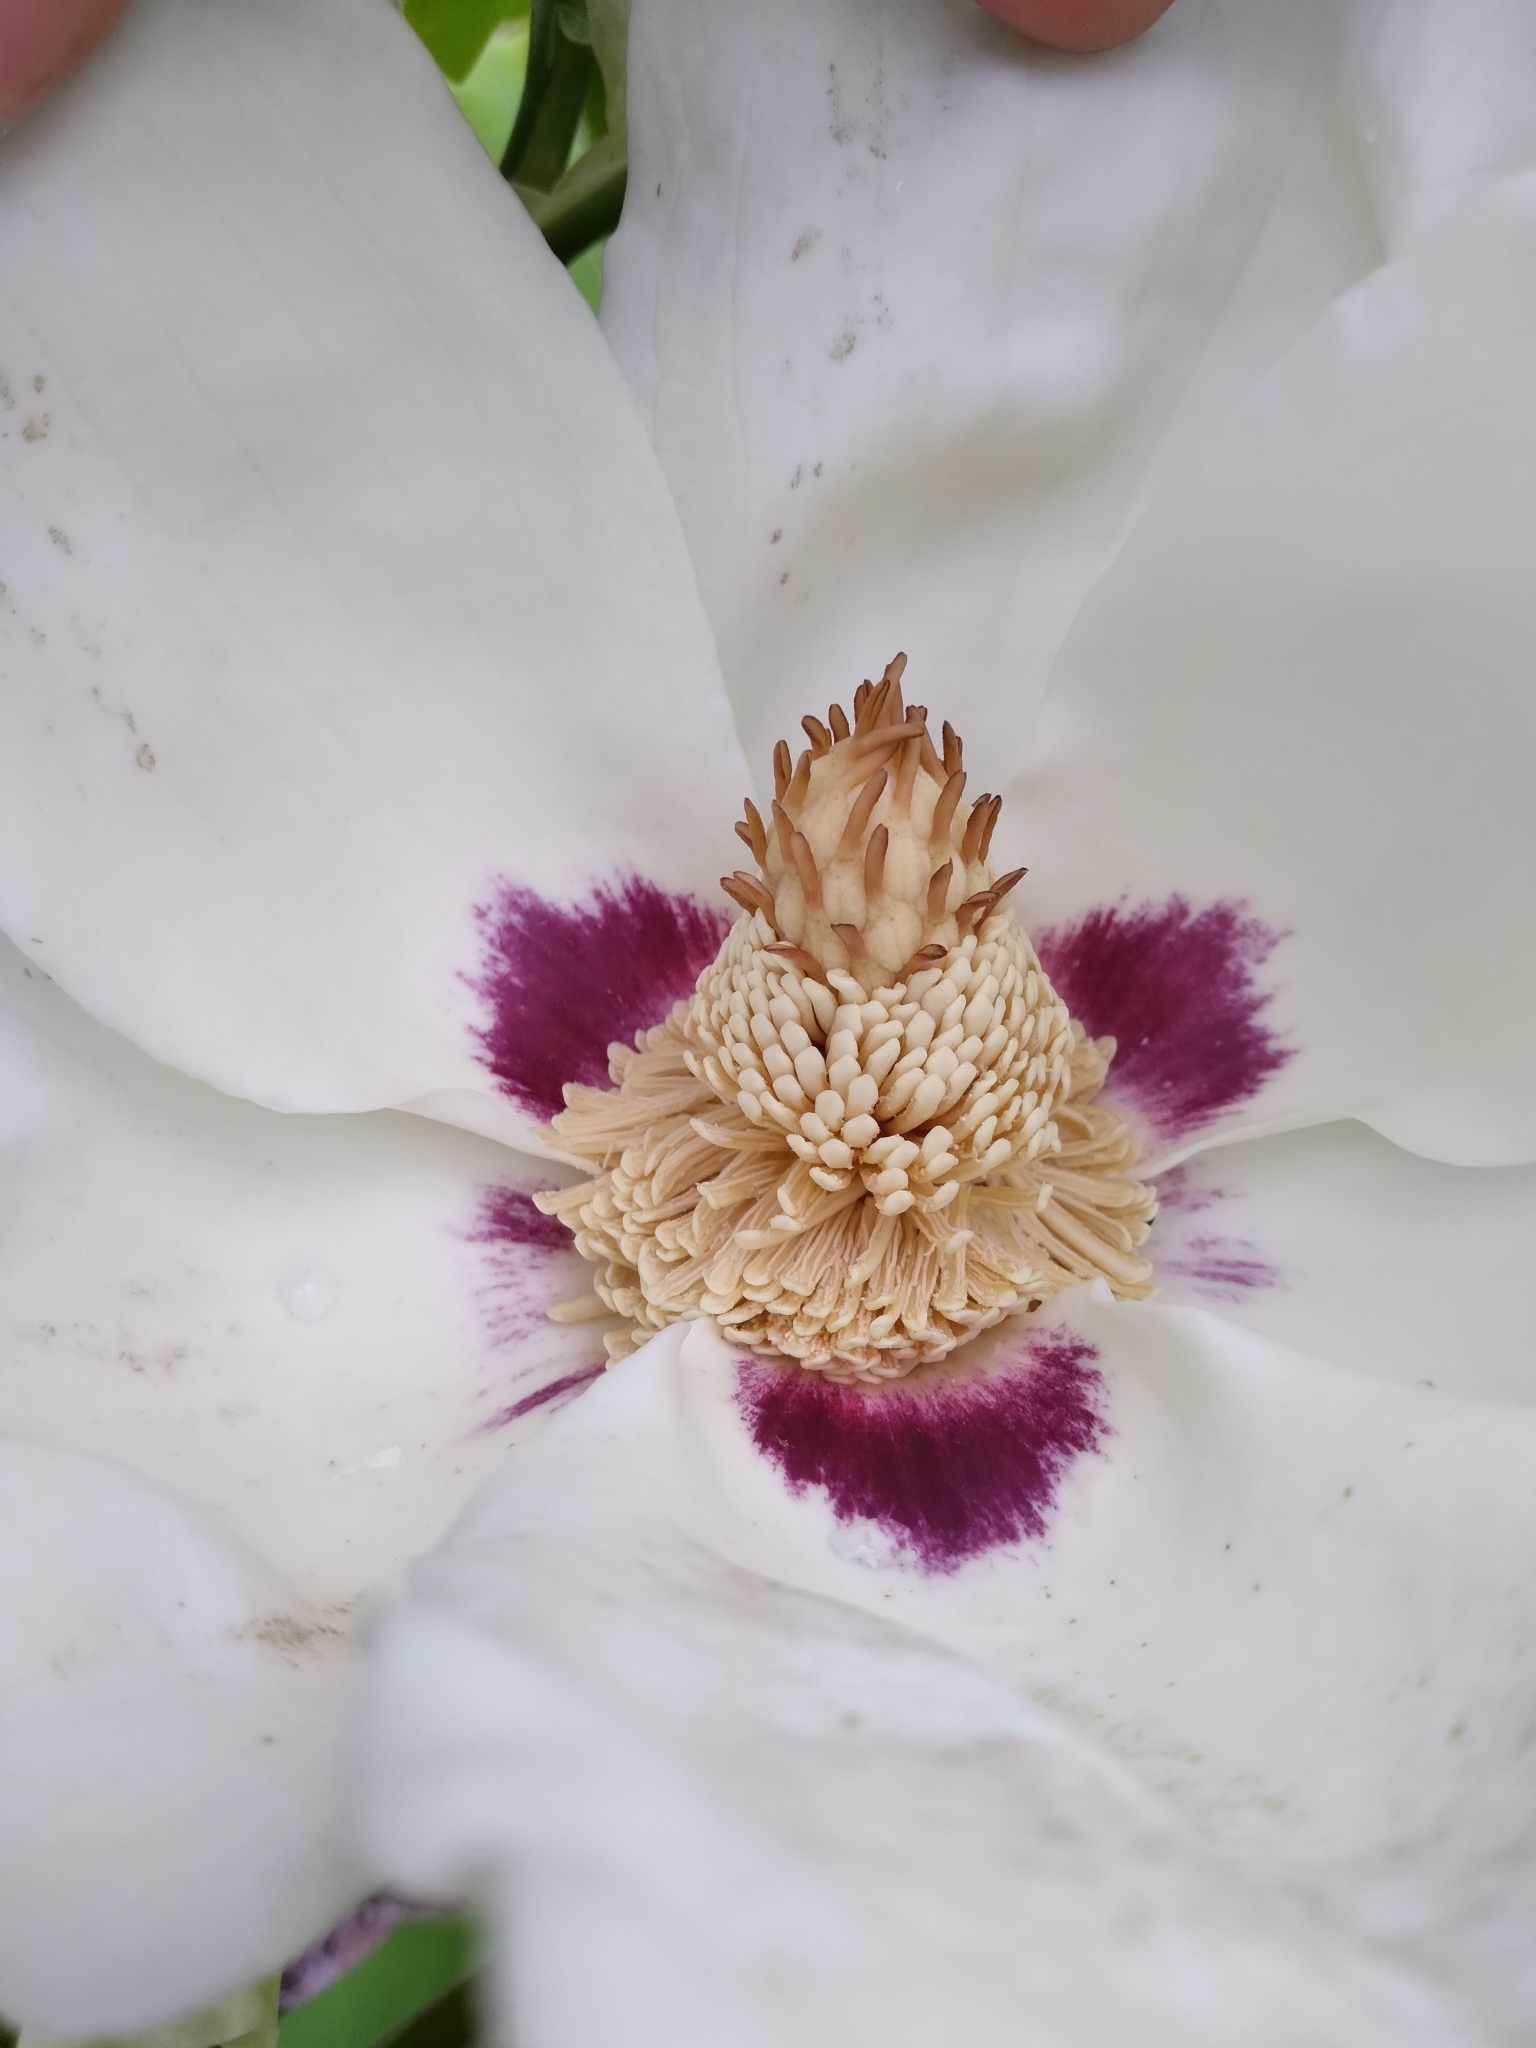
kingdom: Plantae
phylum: Tracheophyta
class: Magnoliopsida
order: Magnoliales
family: Magnoliaceae
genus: Magnolia
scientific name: Magnolia ashei
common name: Ashe's magnolia
